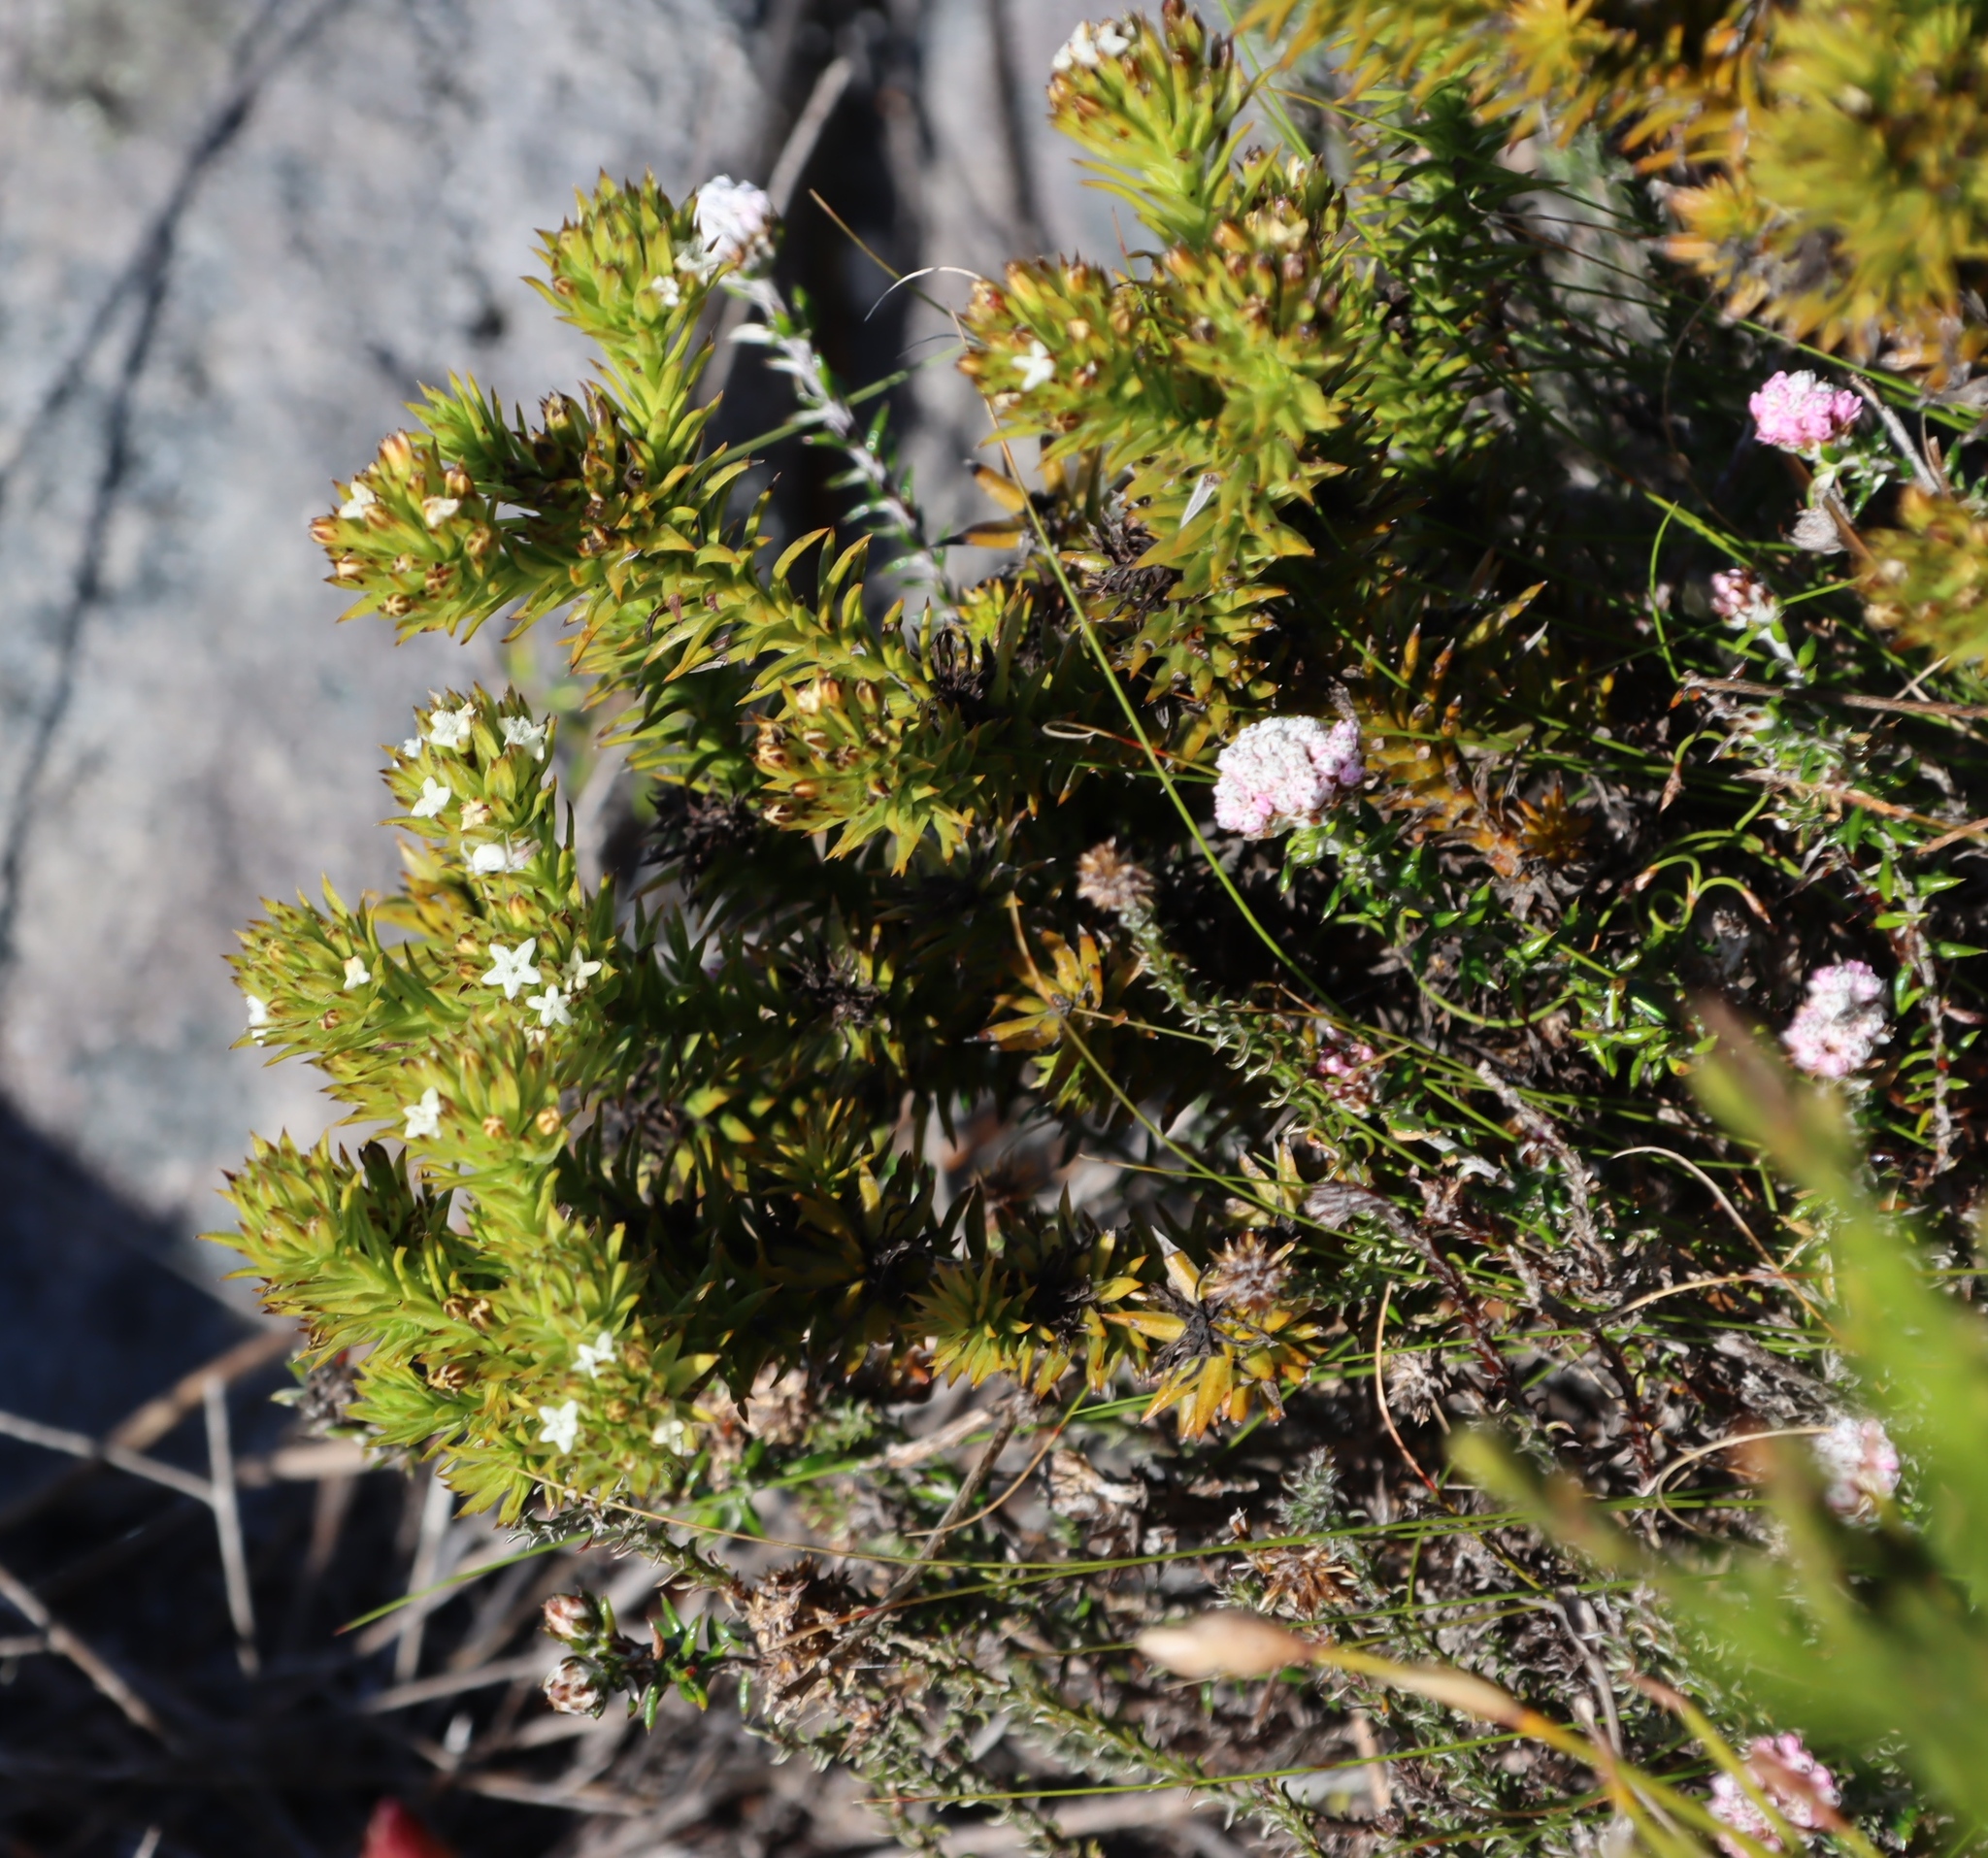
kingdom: Plantae
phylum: Tracheophyta
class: Magnoliopsida
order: Santalales
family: Thesiaceae
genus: Thesium
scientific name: Thesium viridifolium
